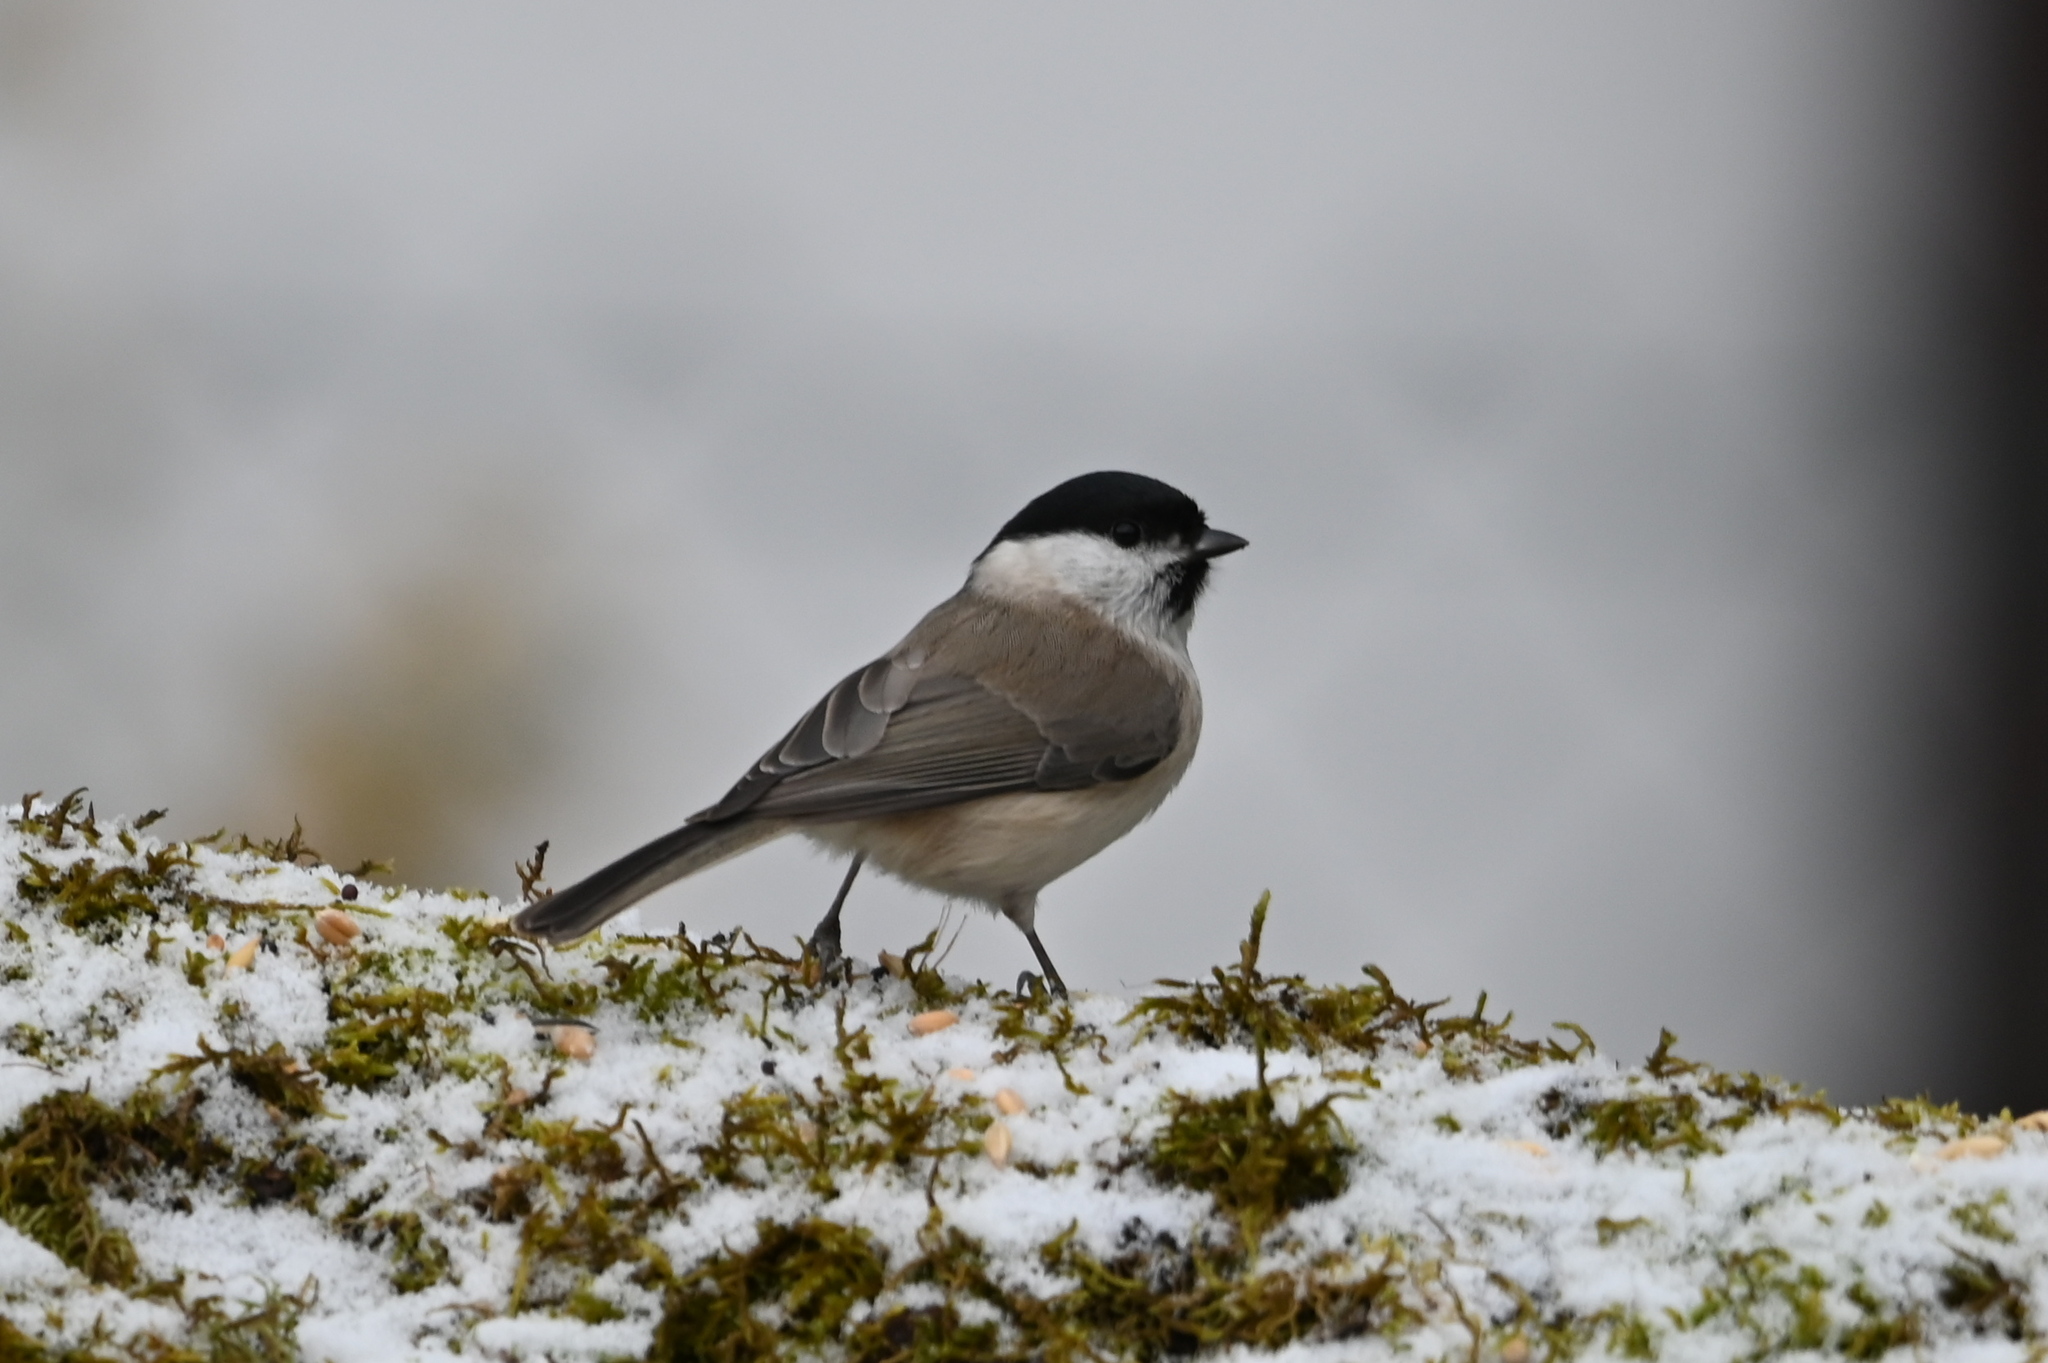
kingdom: Animalia
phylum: Chordata
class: Aves
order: Passeriformes
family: Paridae
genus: Poecile
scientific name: Poecile palustris
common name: Marsh tit
